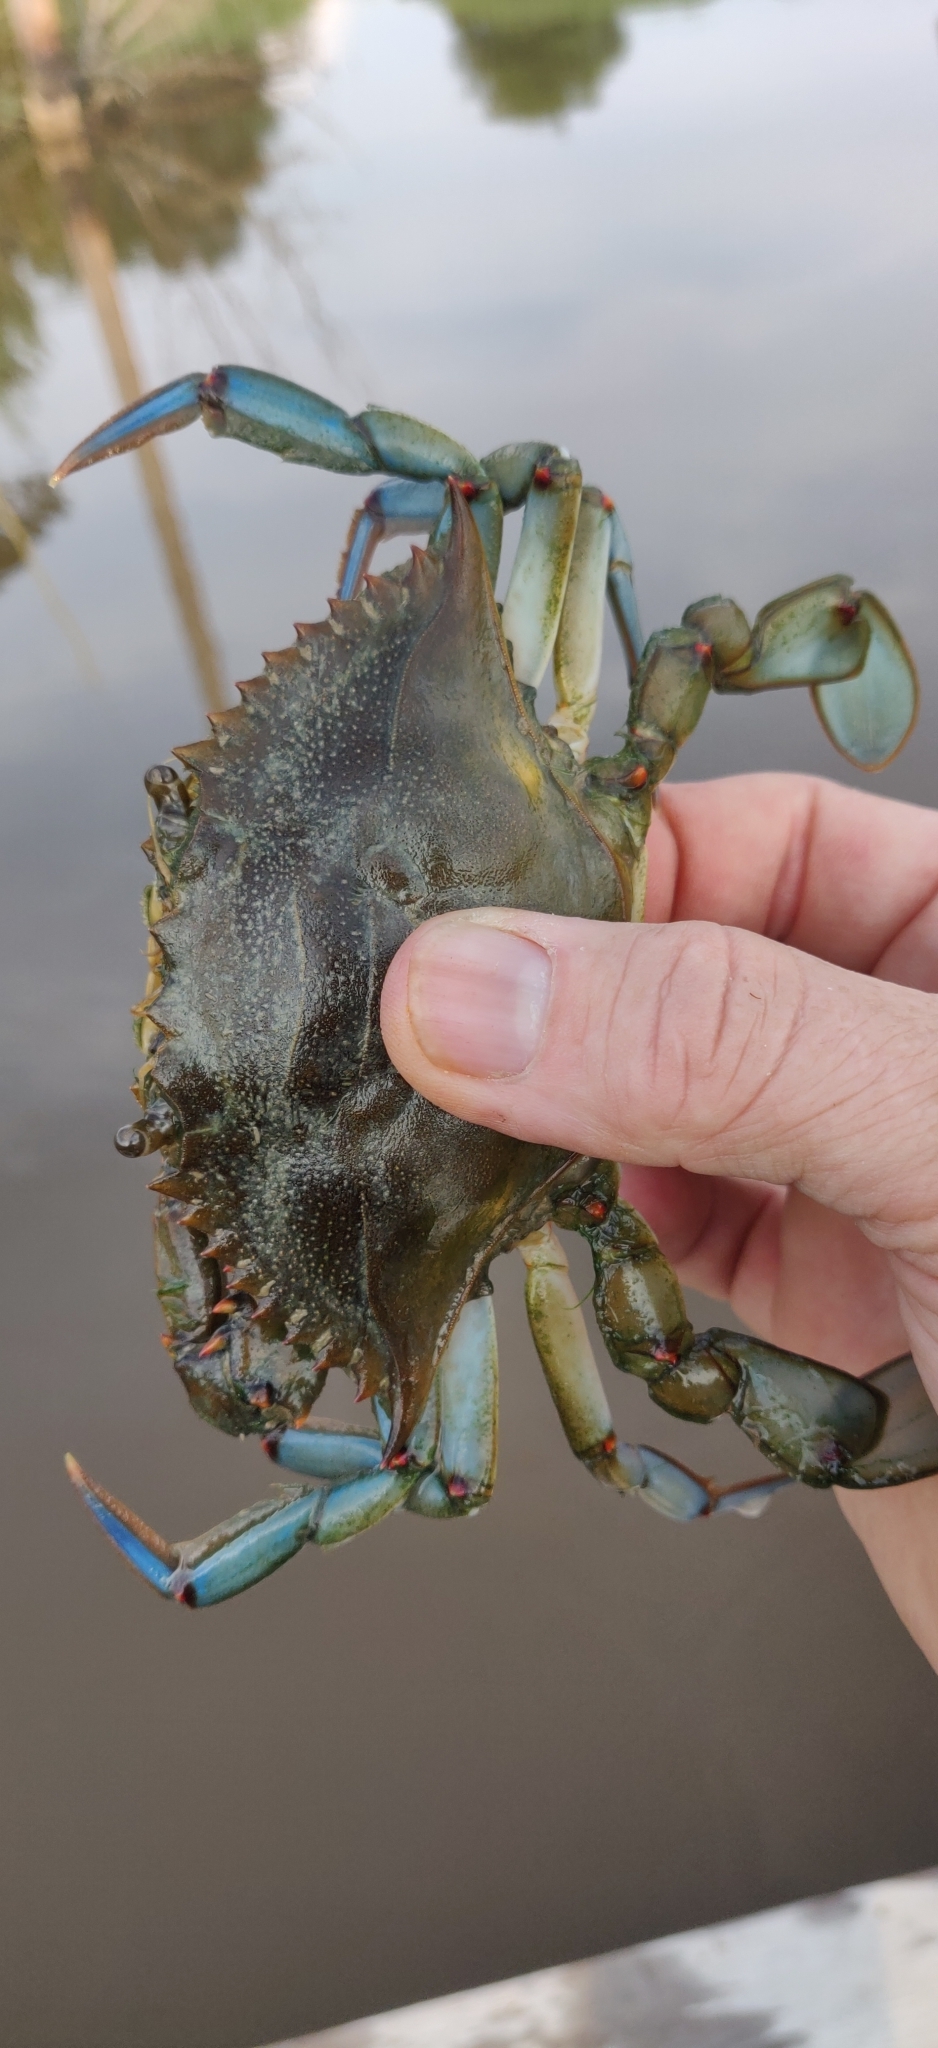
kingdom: Animalia
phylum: Arthropoda
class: Malacostraca
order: Decapoda
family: Portunidae
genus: Callinectes
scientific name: Callinectes sapidus
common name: Blue crab
